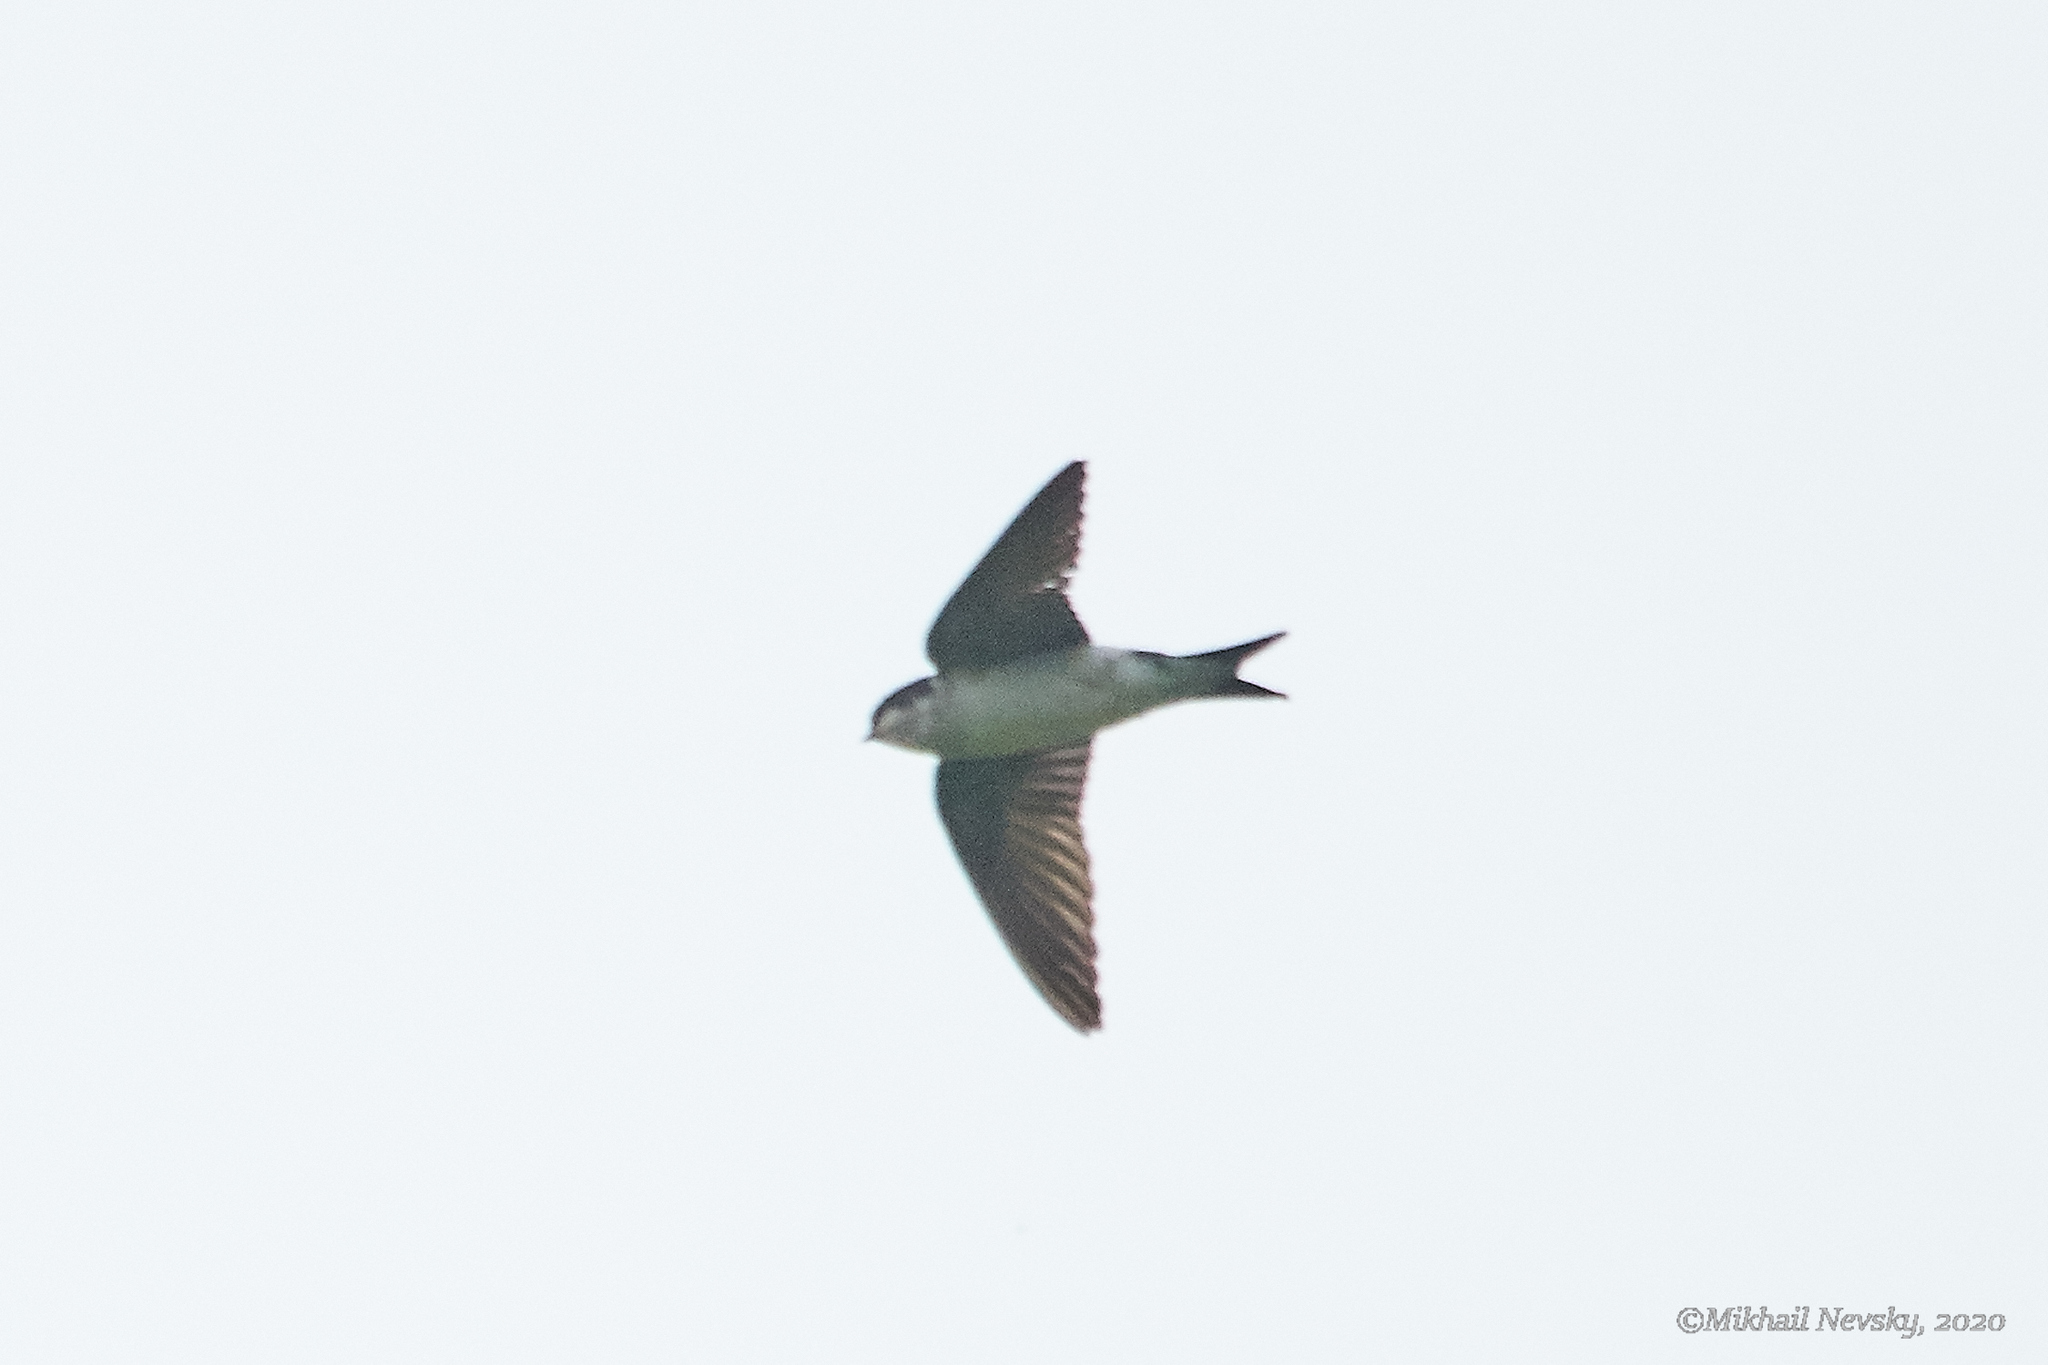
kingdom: Animalia
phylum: Chordata
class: Aves
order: Passeriformes
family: Hirundinidae
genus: Delichon
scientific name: Delichon urbicum
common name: Common house martin
